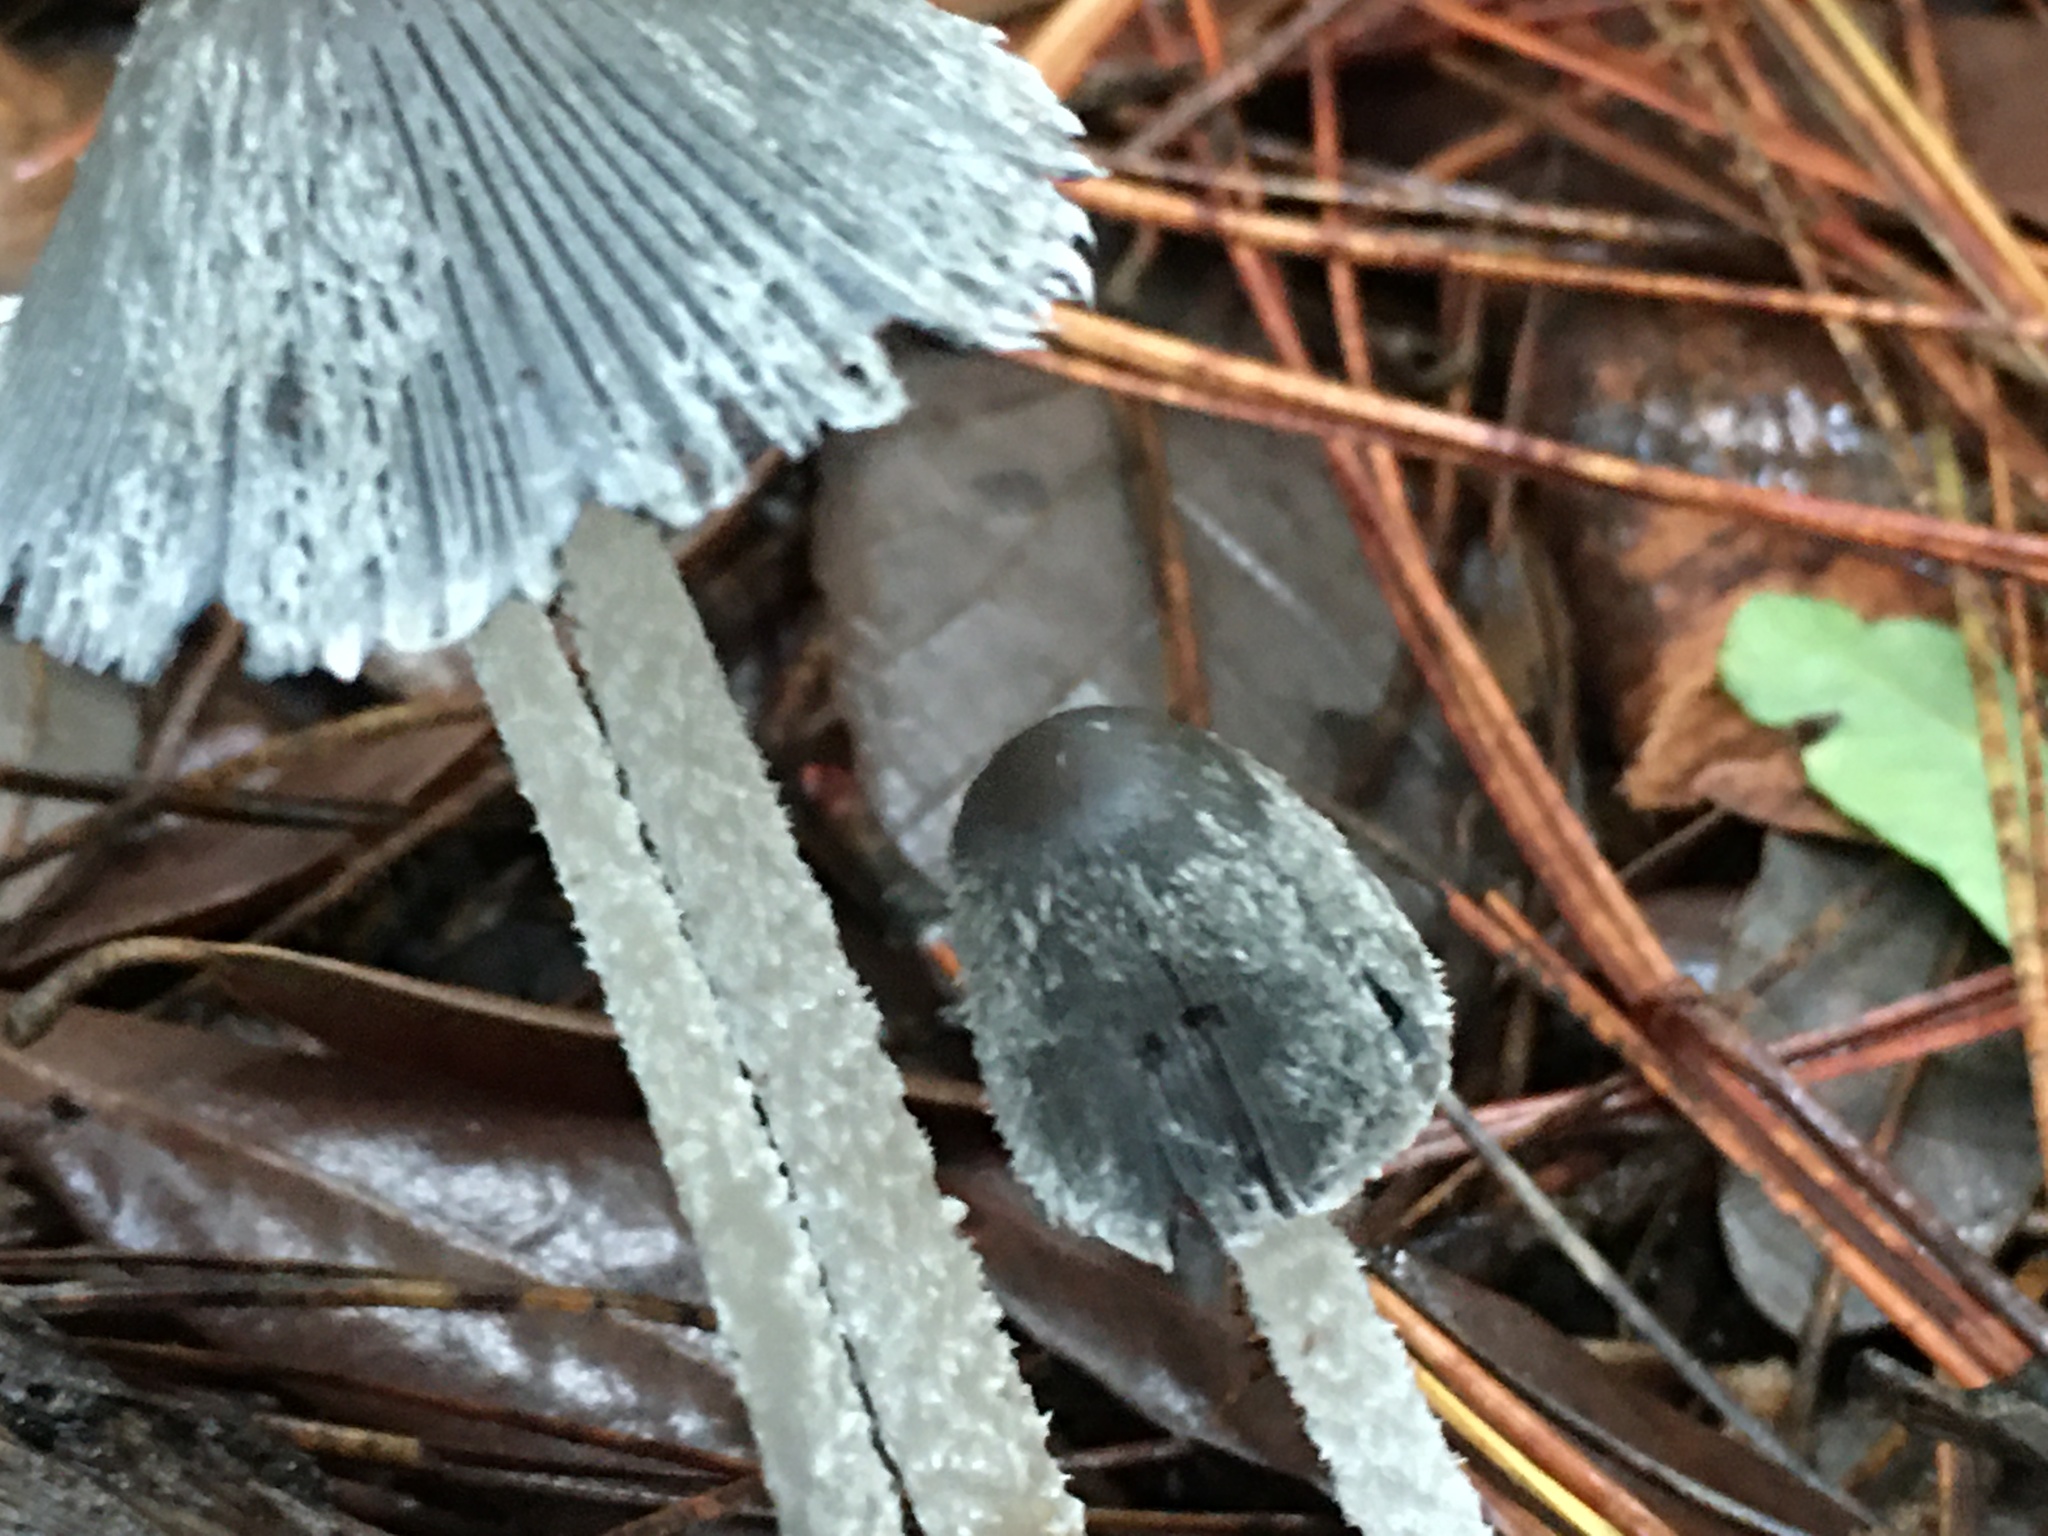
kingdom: Fungi
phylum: Basidiomycota
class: Agaricomycetes
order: Agaricales
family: Psathyrellaceae
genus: Coprinopsis
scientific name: Coprinopsis lagopus
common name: Hare'sfoot inkcap
